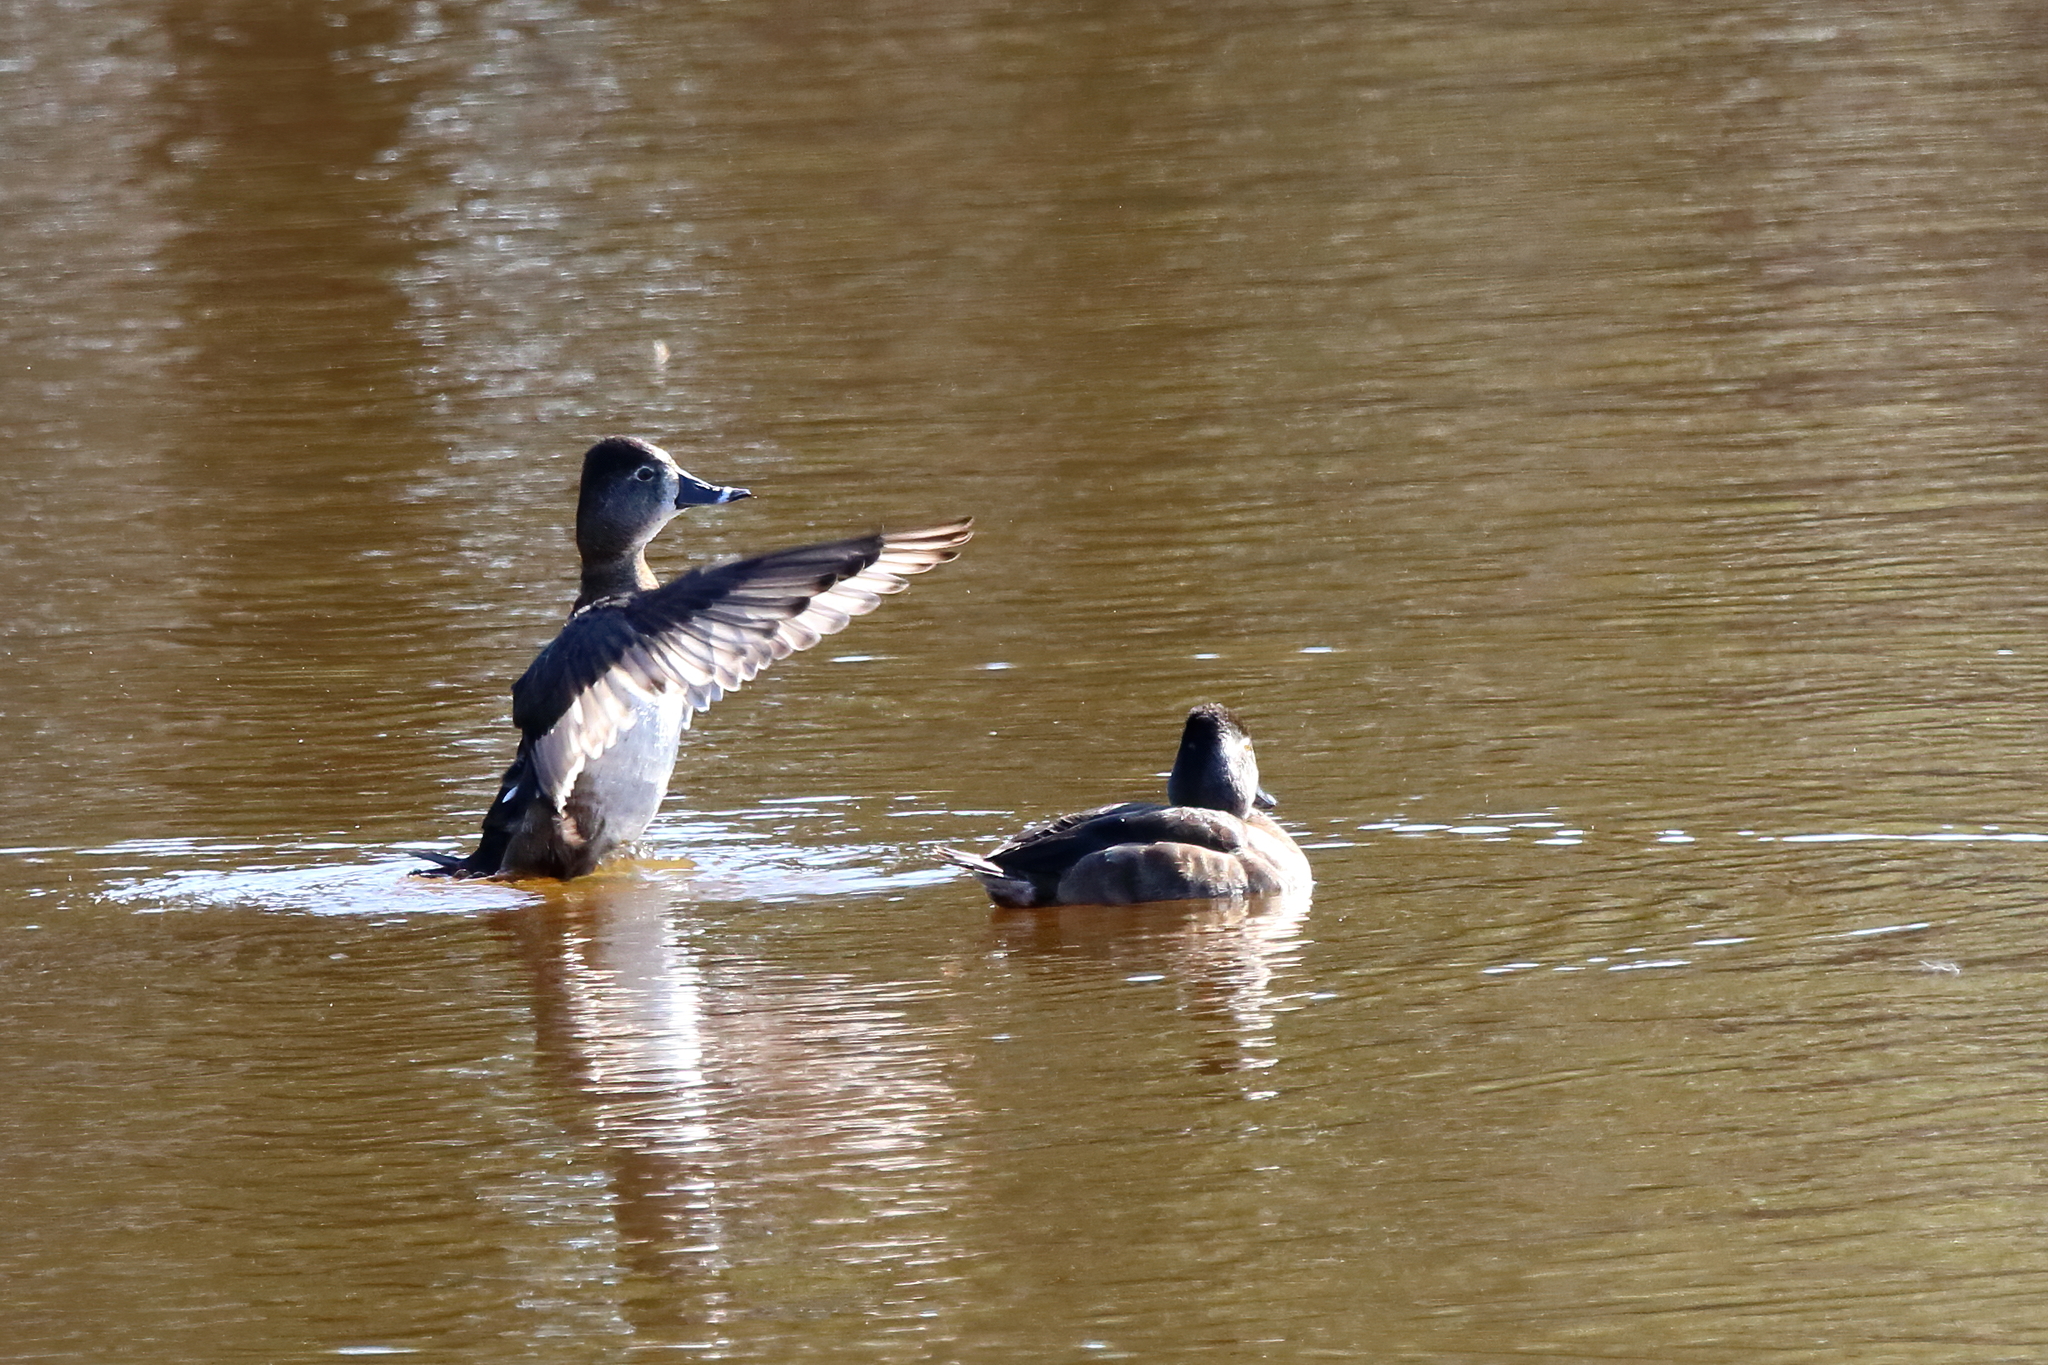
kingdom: Animalia
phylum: Chordata
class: Aves
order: Anseriformes
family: Anatidae
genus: Aythya
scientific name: Aythya collaris
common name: Ring-necked duck
